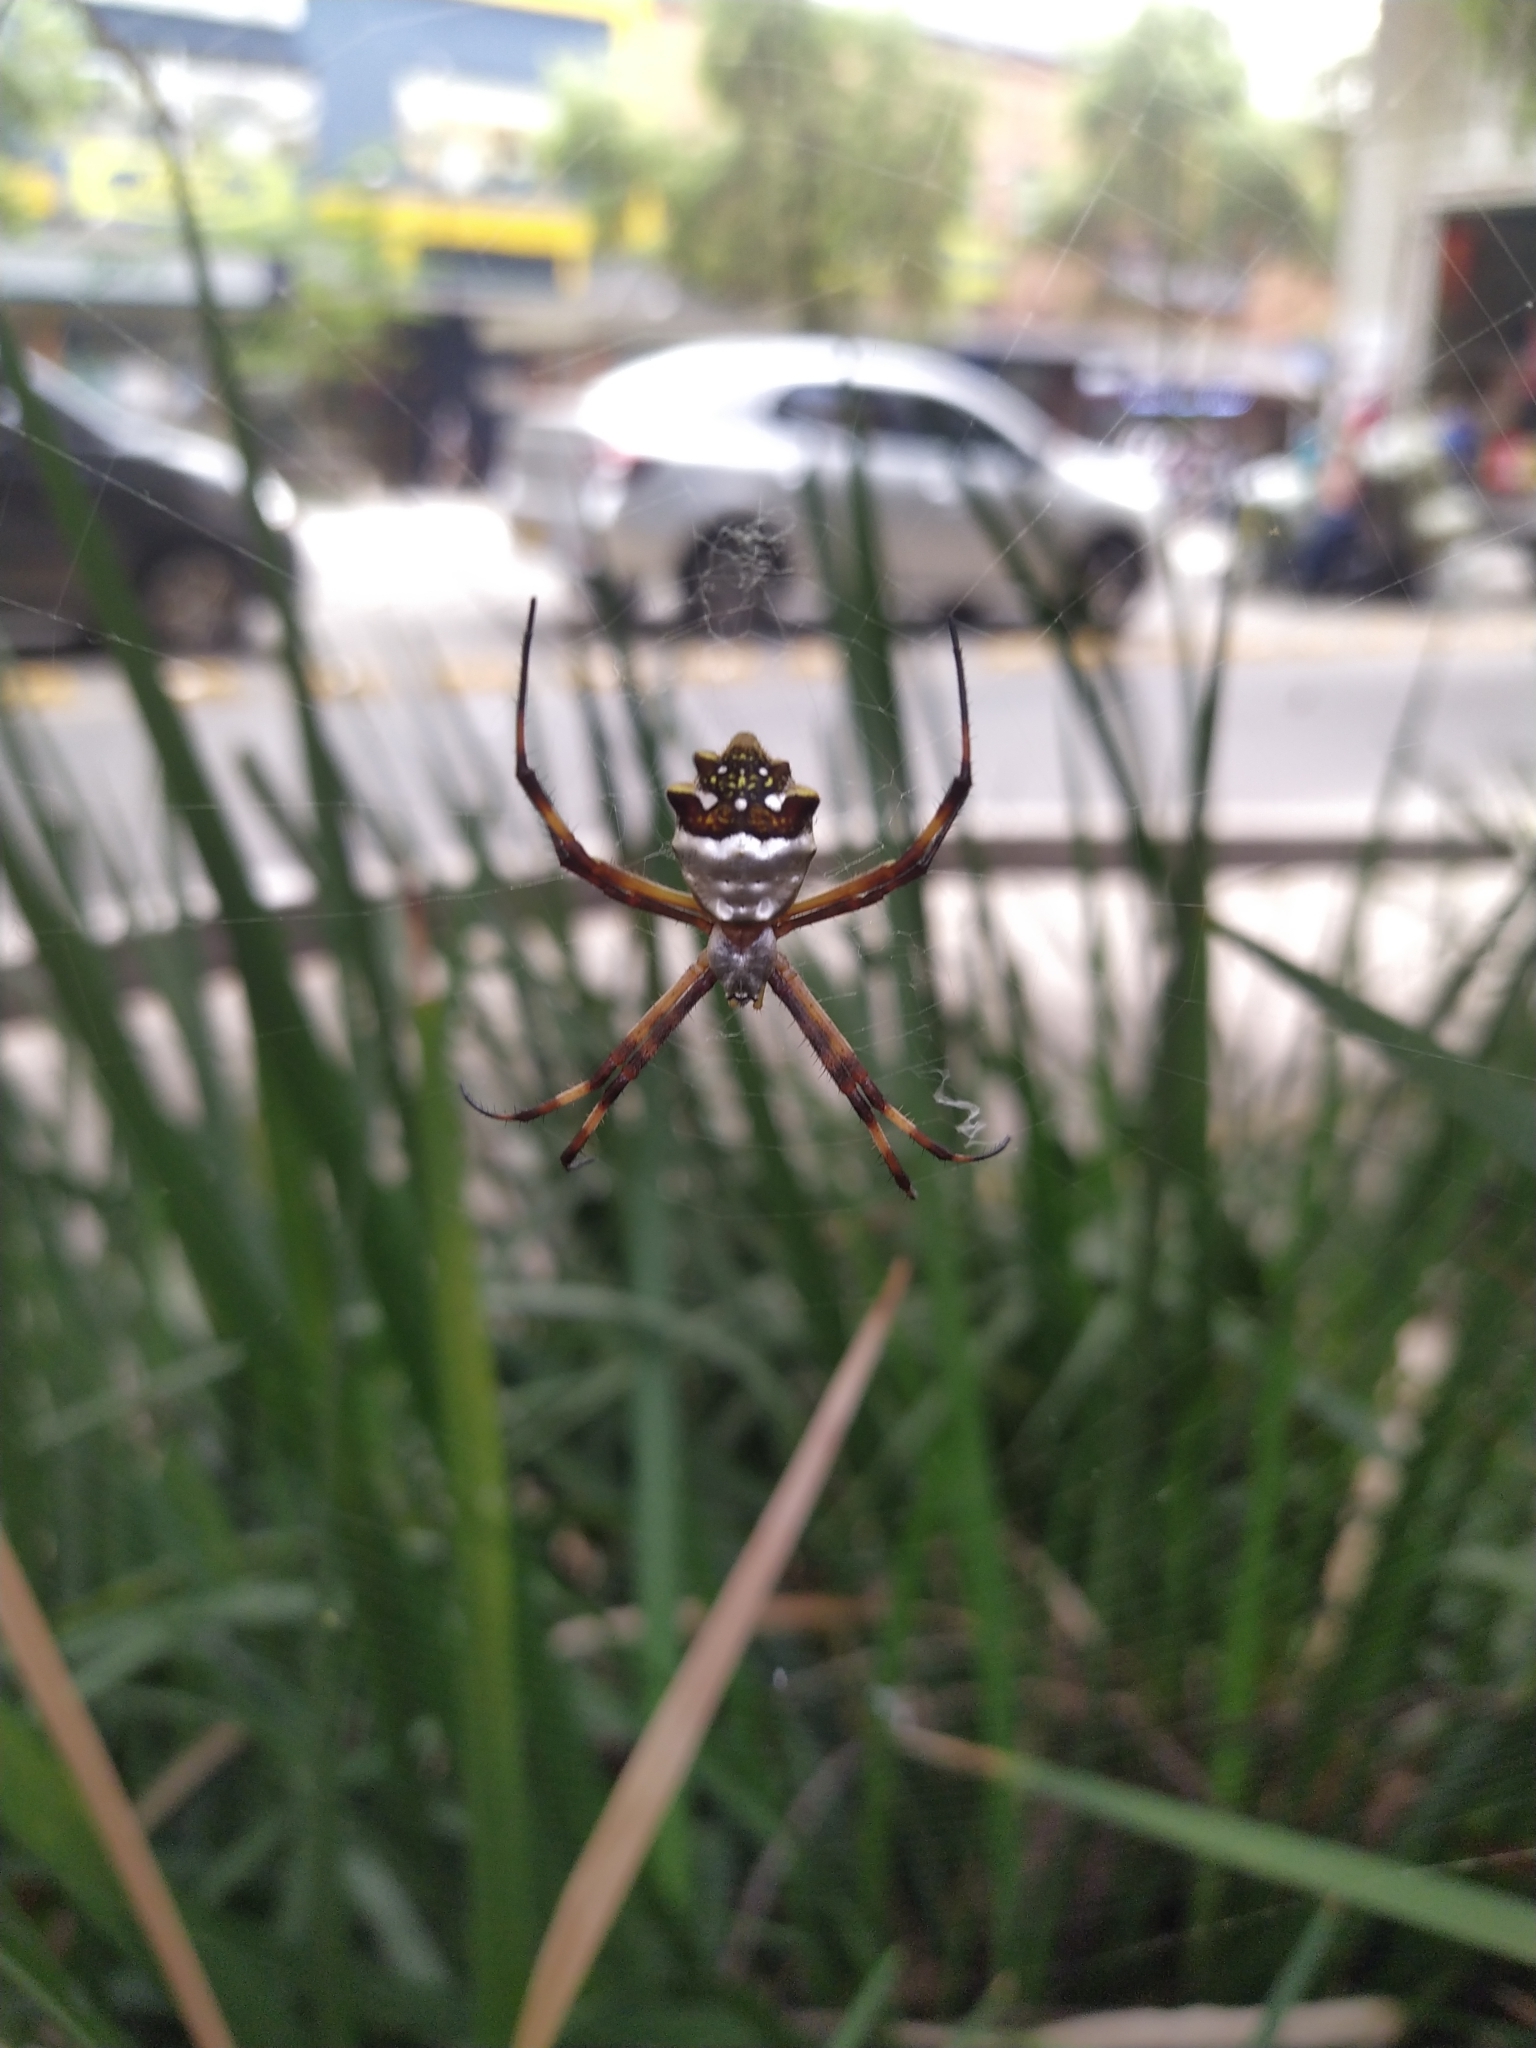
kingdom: Animalia
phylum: Arthropoda
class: Arachnida
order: Araneae
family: Araneidae
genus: Argiope
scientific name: Argiope argentata
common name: Orb weavers
